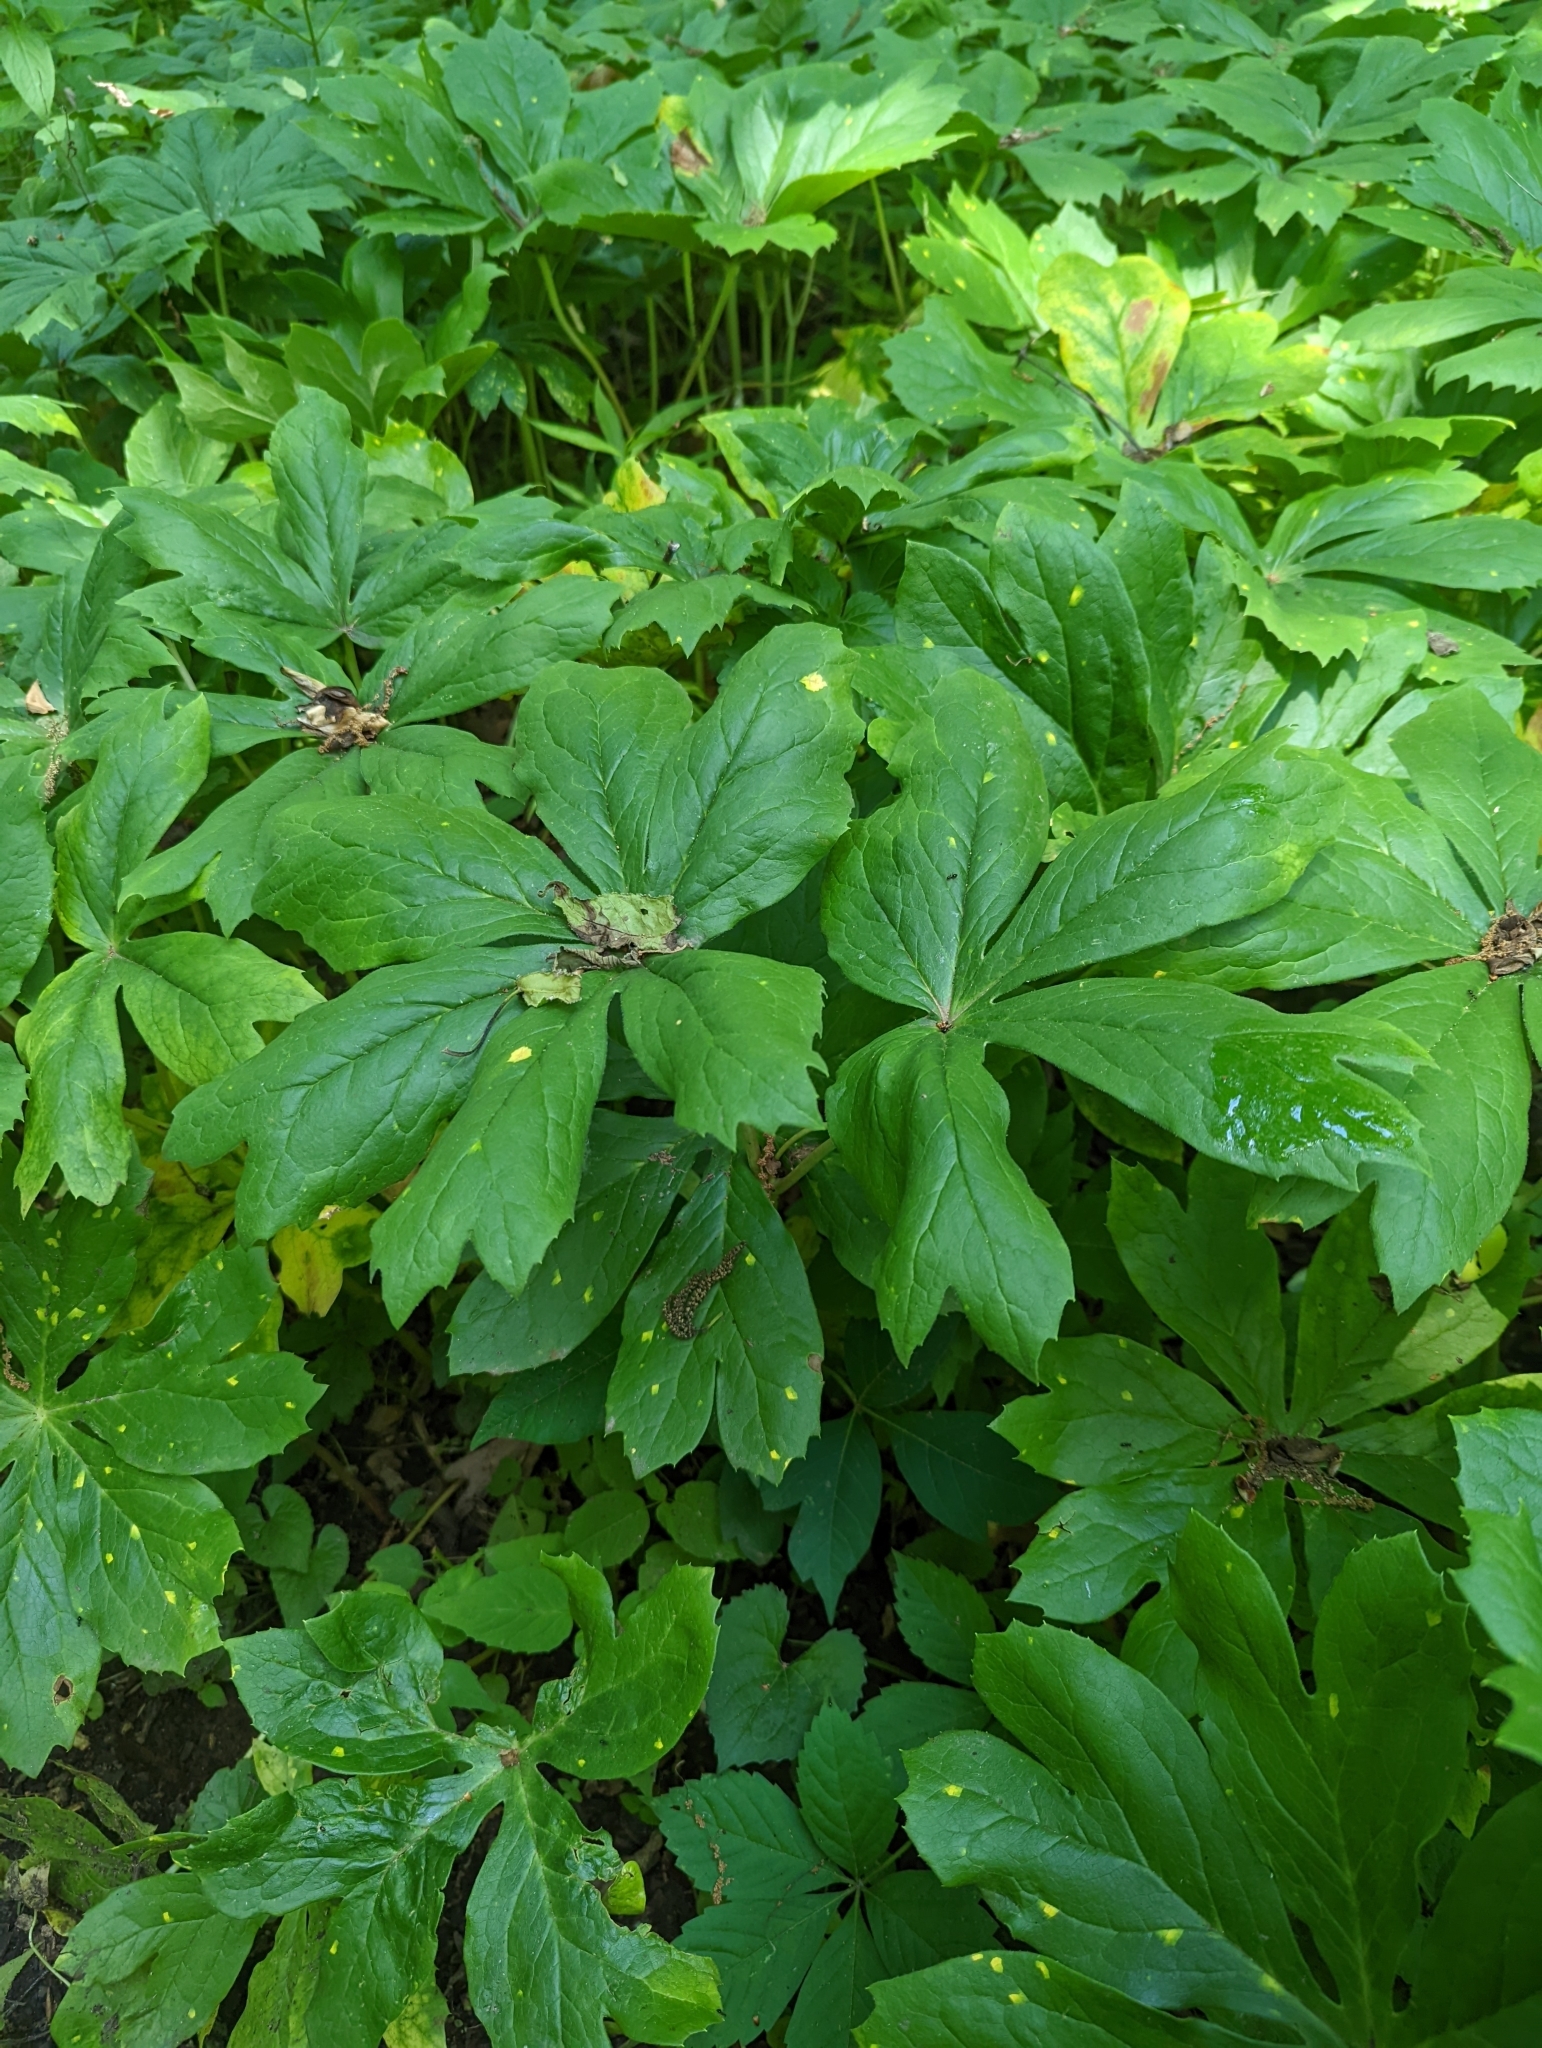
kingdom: Plantae
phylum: Tracheophyta
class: Magnoliopsida
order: Ranunculales
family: Berberidaceae
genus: Podophyllum
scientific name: Podophyllum peltatum
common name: Wild mandrake
